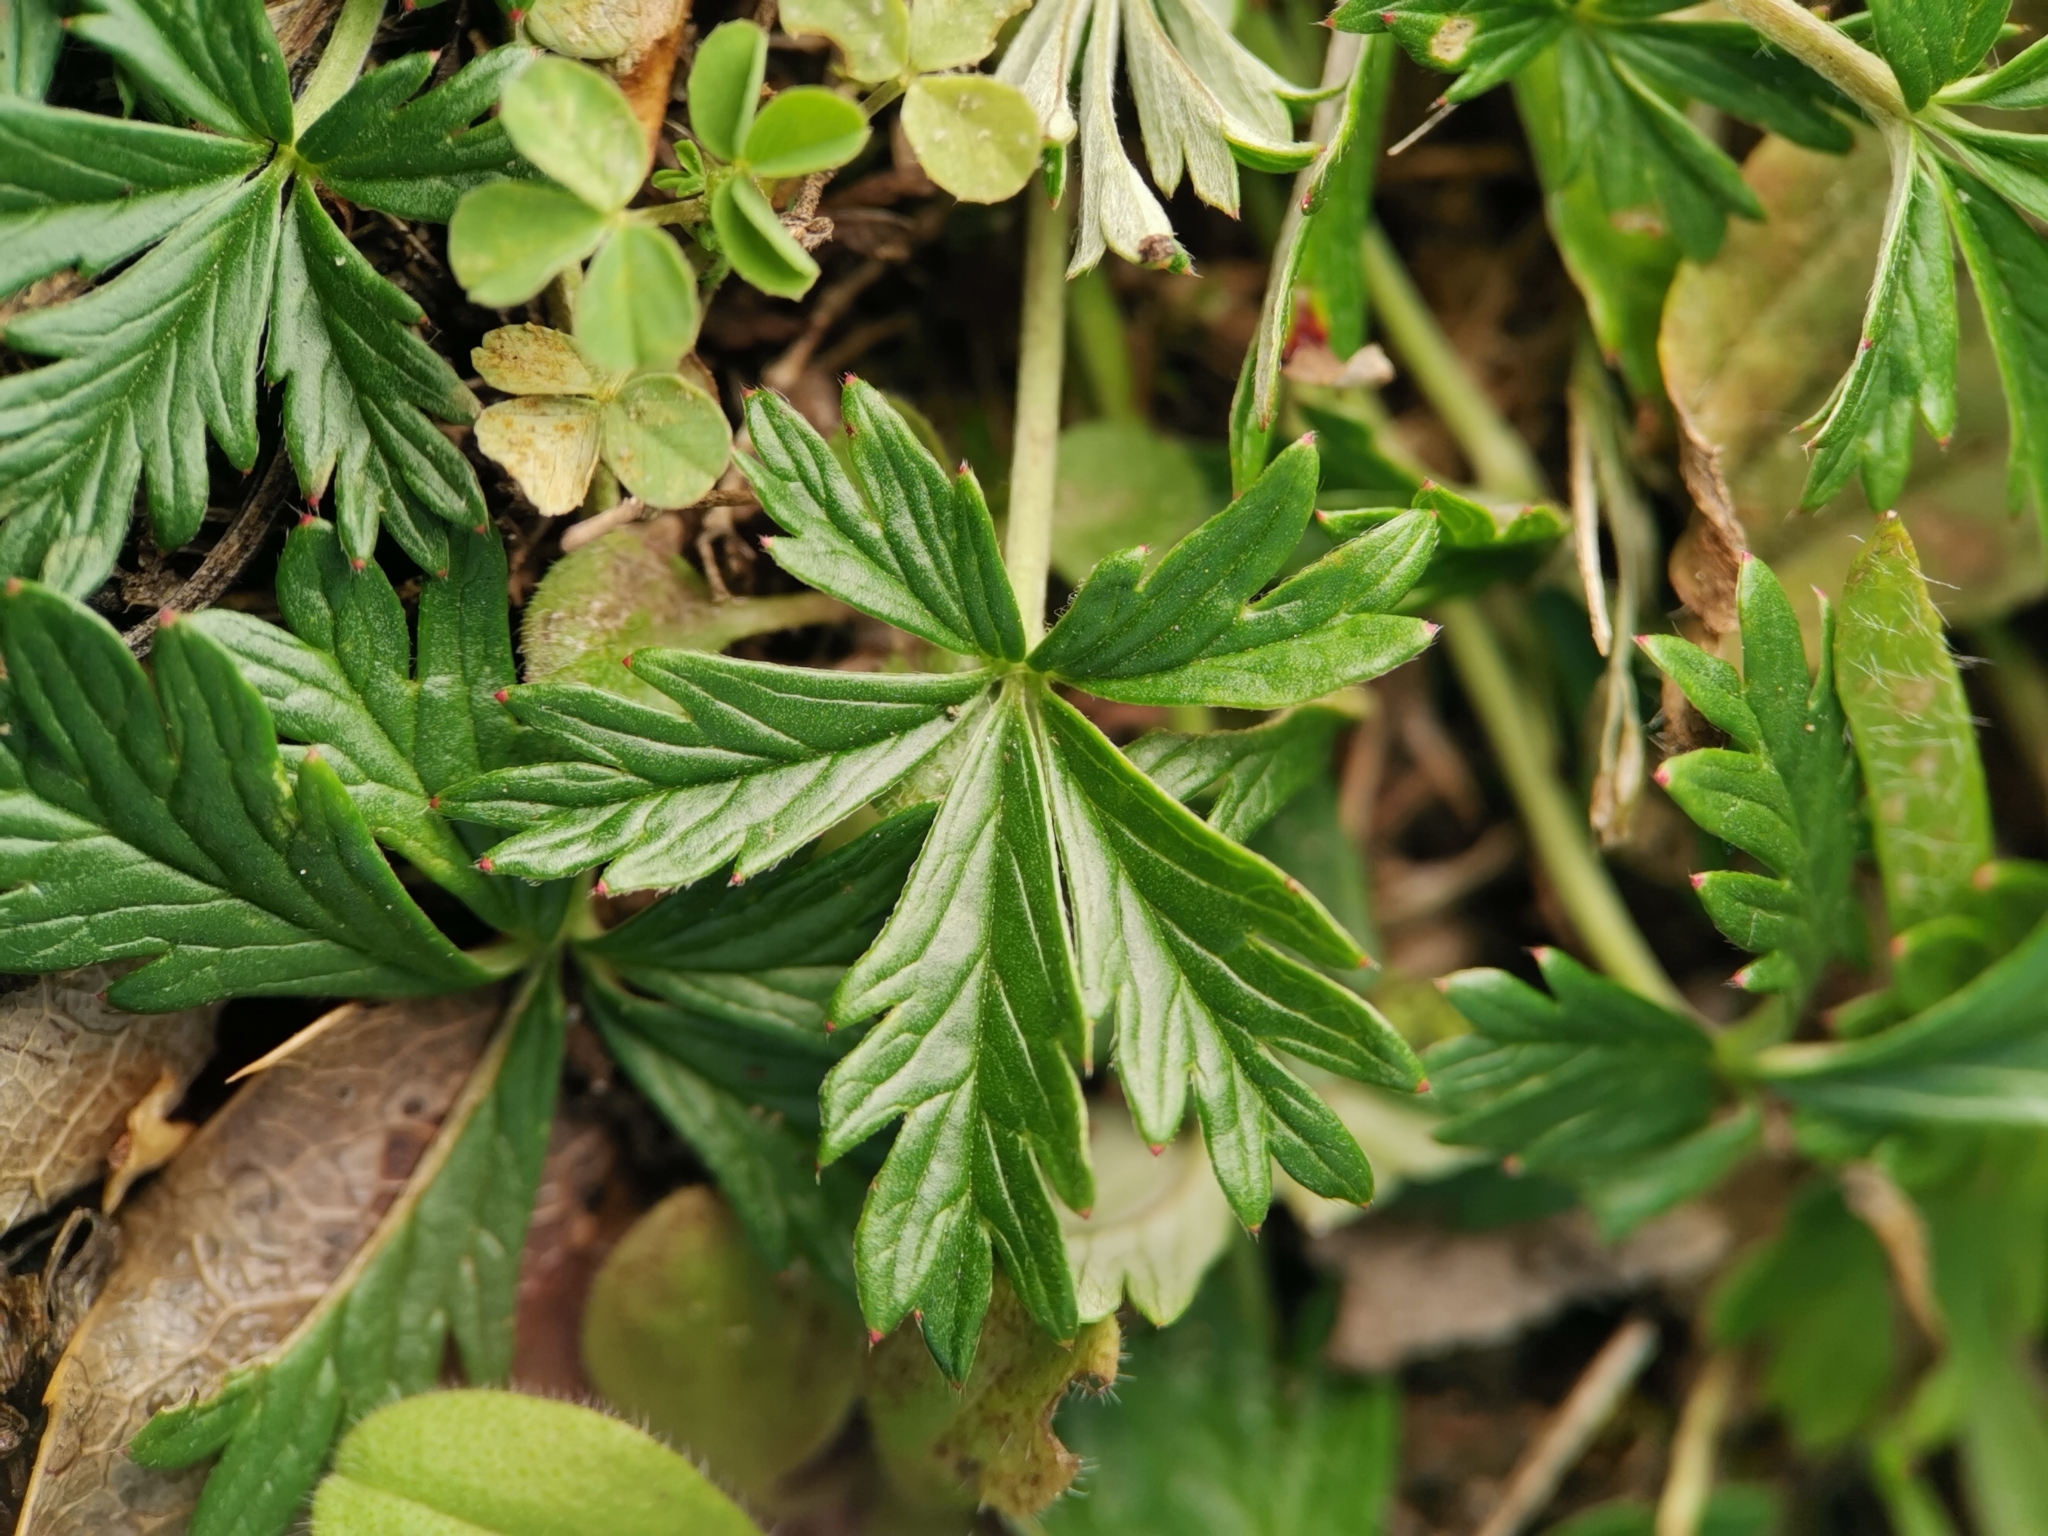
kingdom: Plantae
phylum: Tracheophyta
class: Magnoliopsida
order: Rosales
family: Rosaceae
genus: Potentilla
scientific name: Potentilla argentea
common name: Hoary cinquefoil
